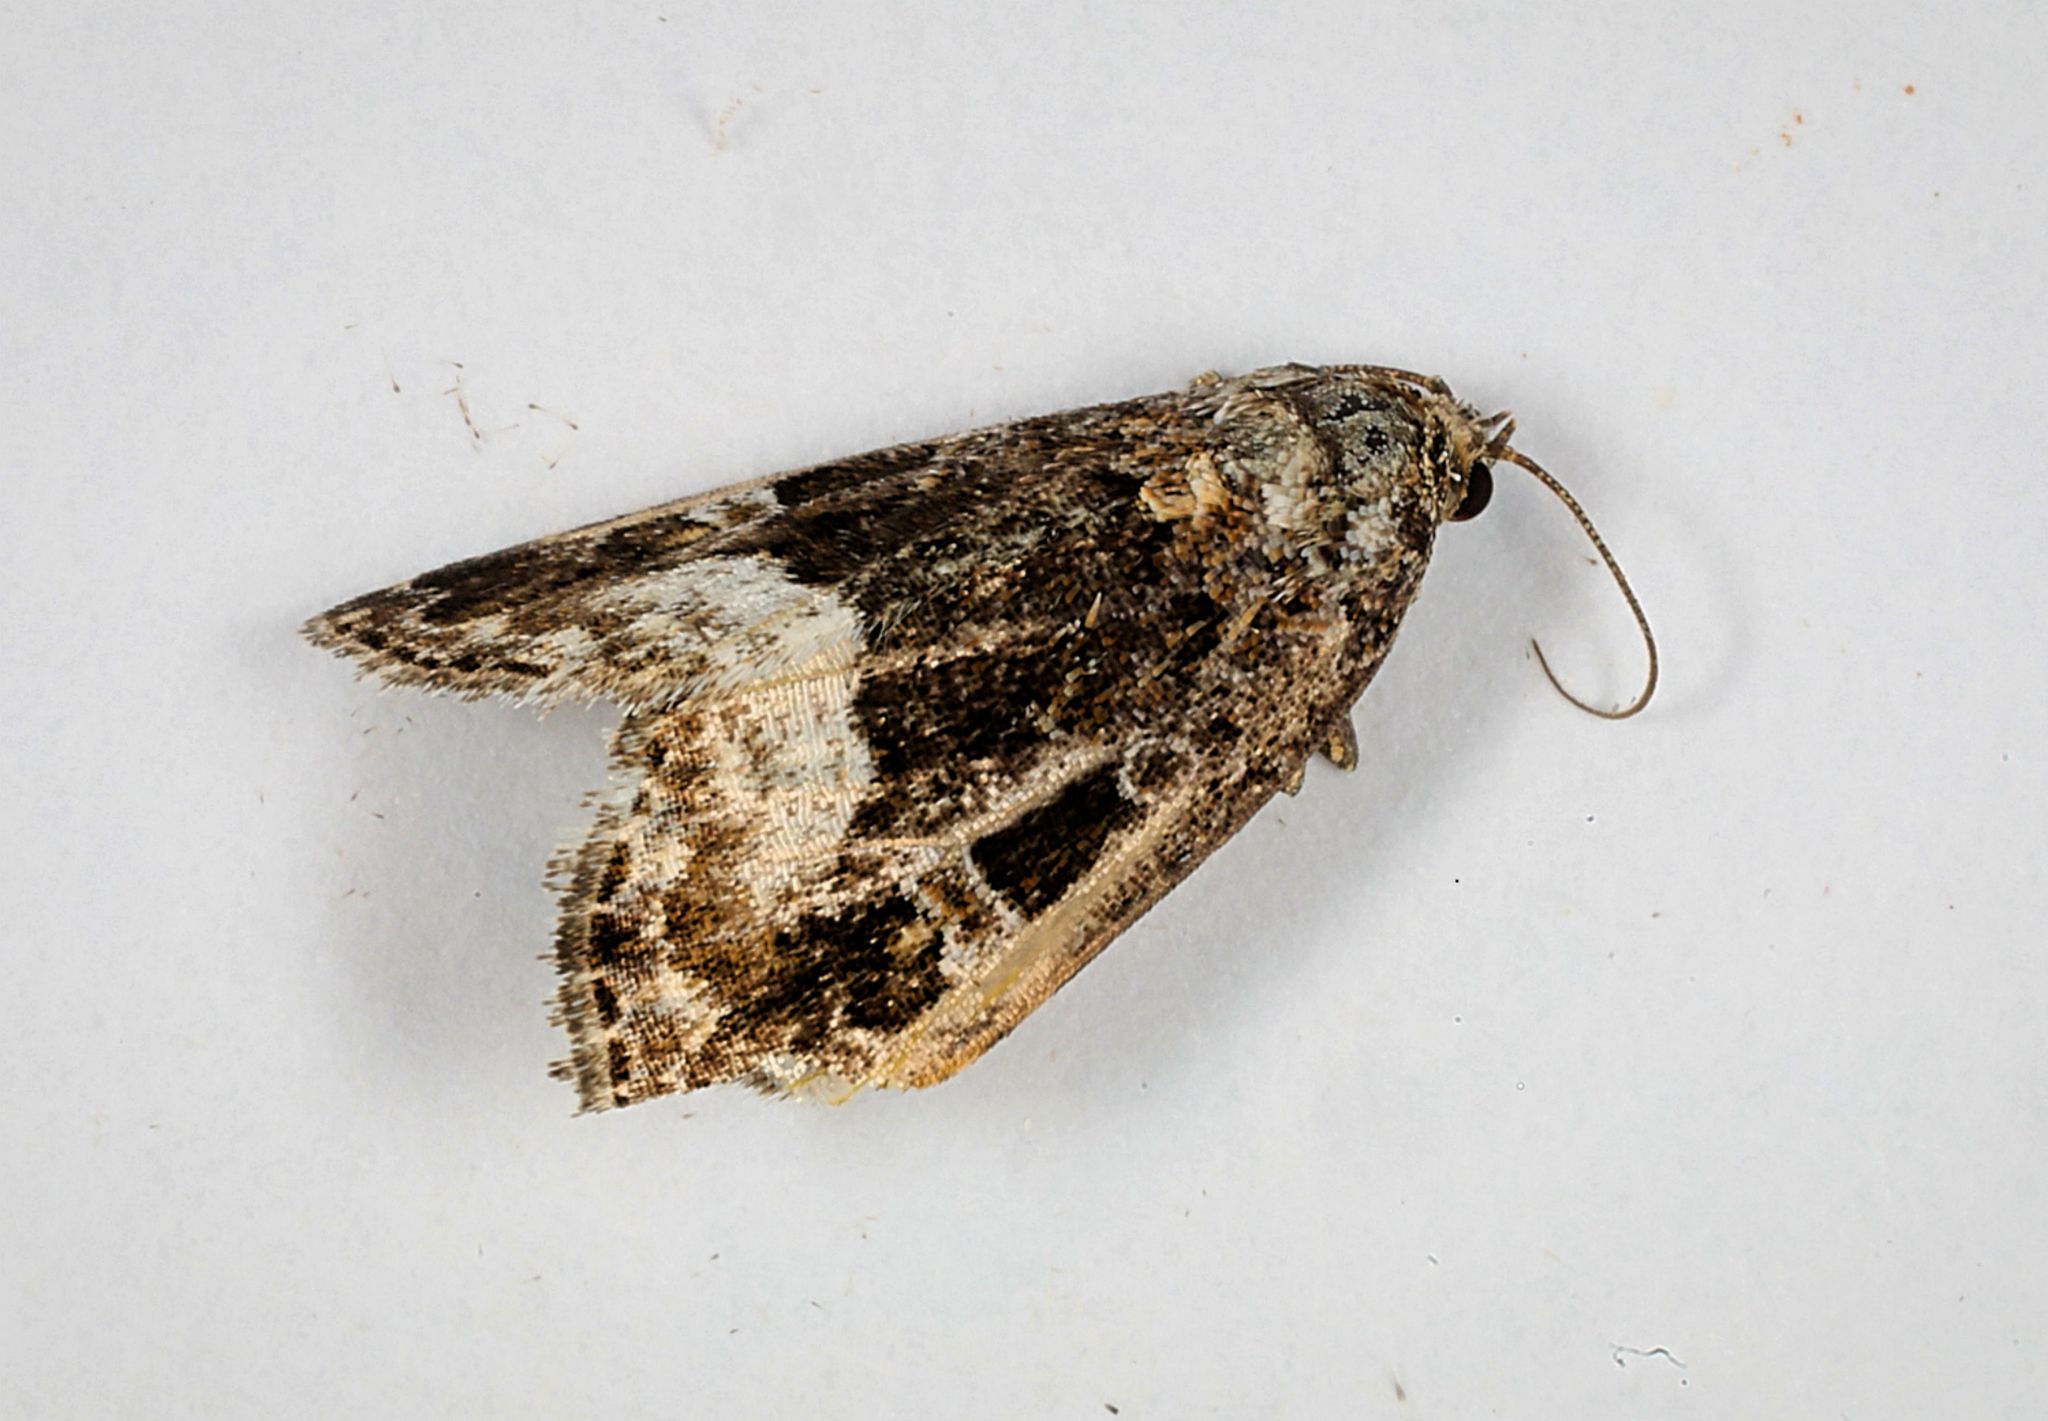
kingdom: Animalia
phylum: Arthropoda
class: Insecta
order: Lepidoptera
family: Noctuidae
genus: Deltote
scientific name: Deltote pygarga
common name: Marbled white spot
